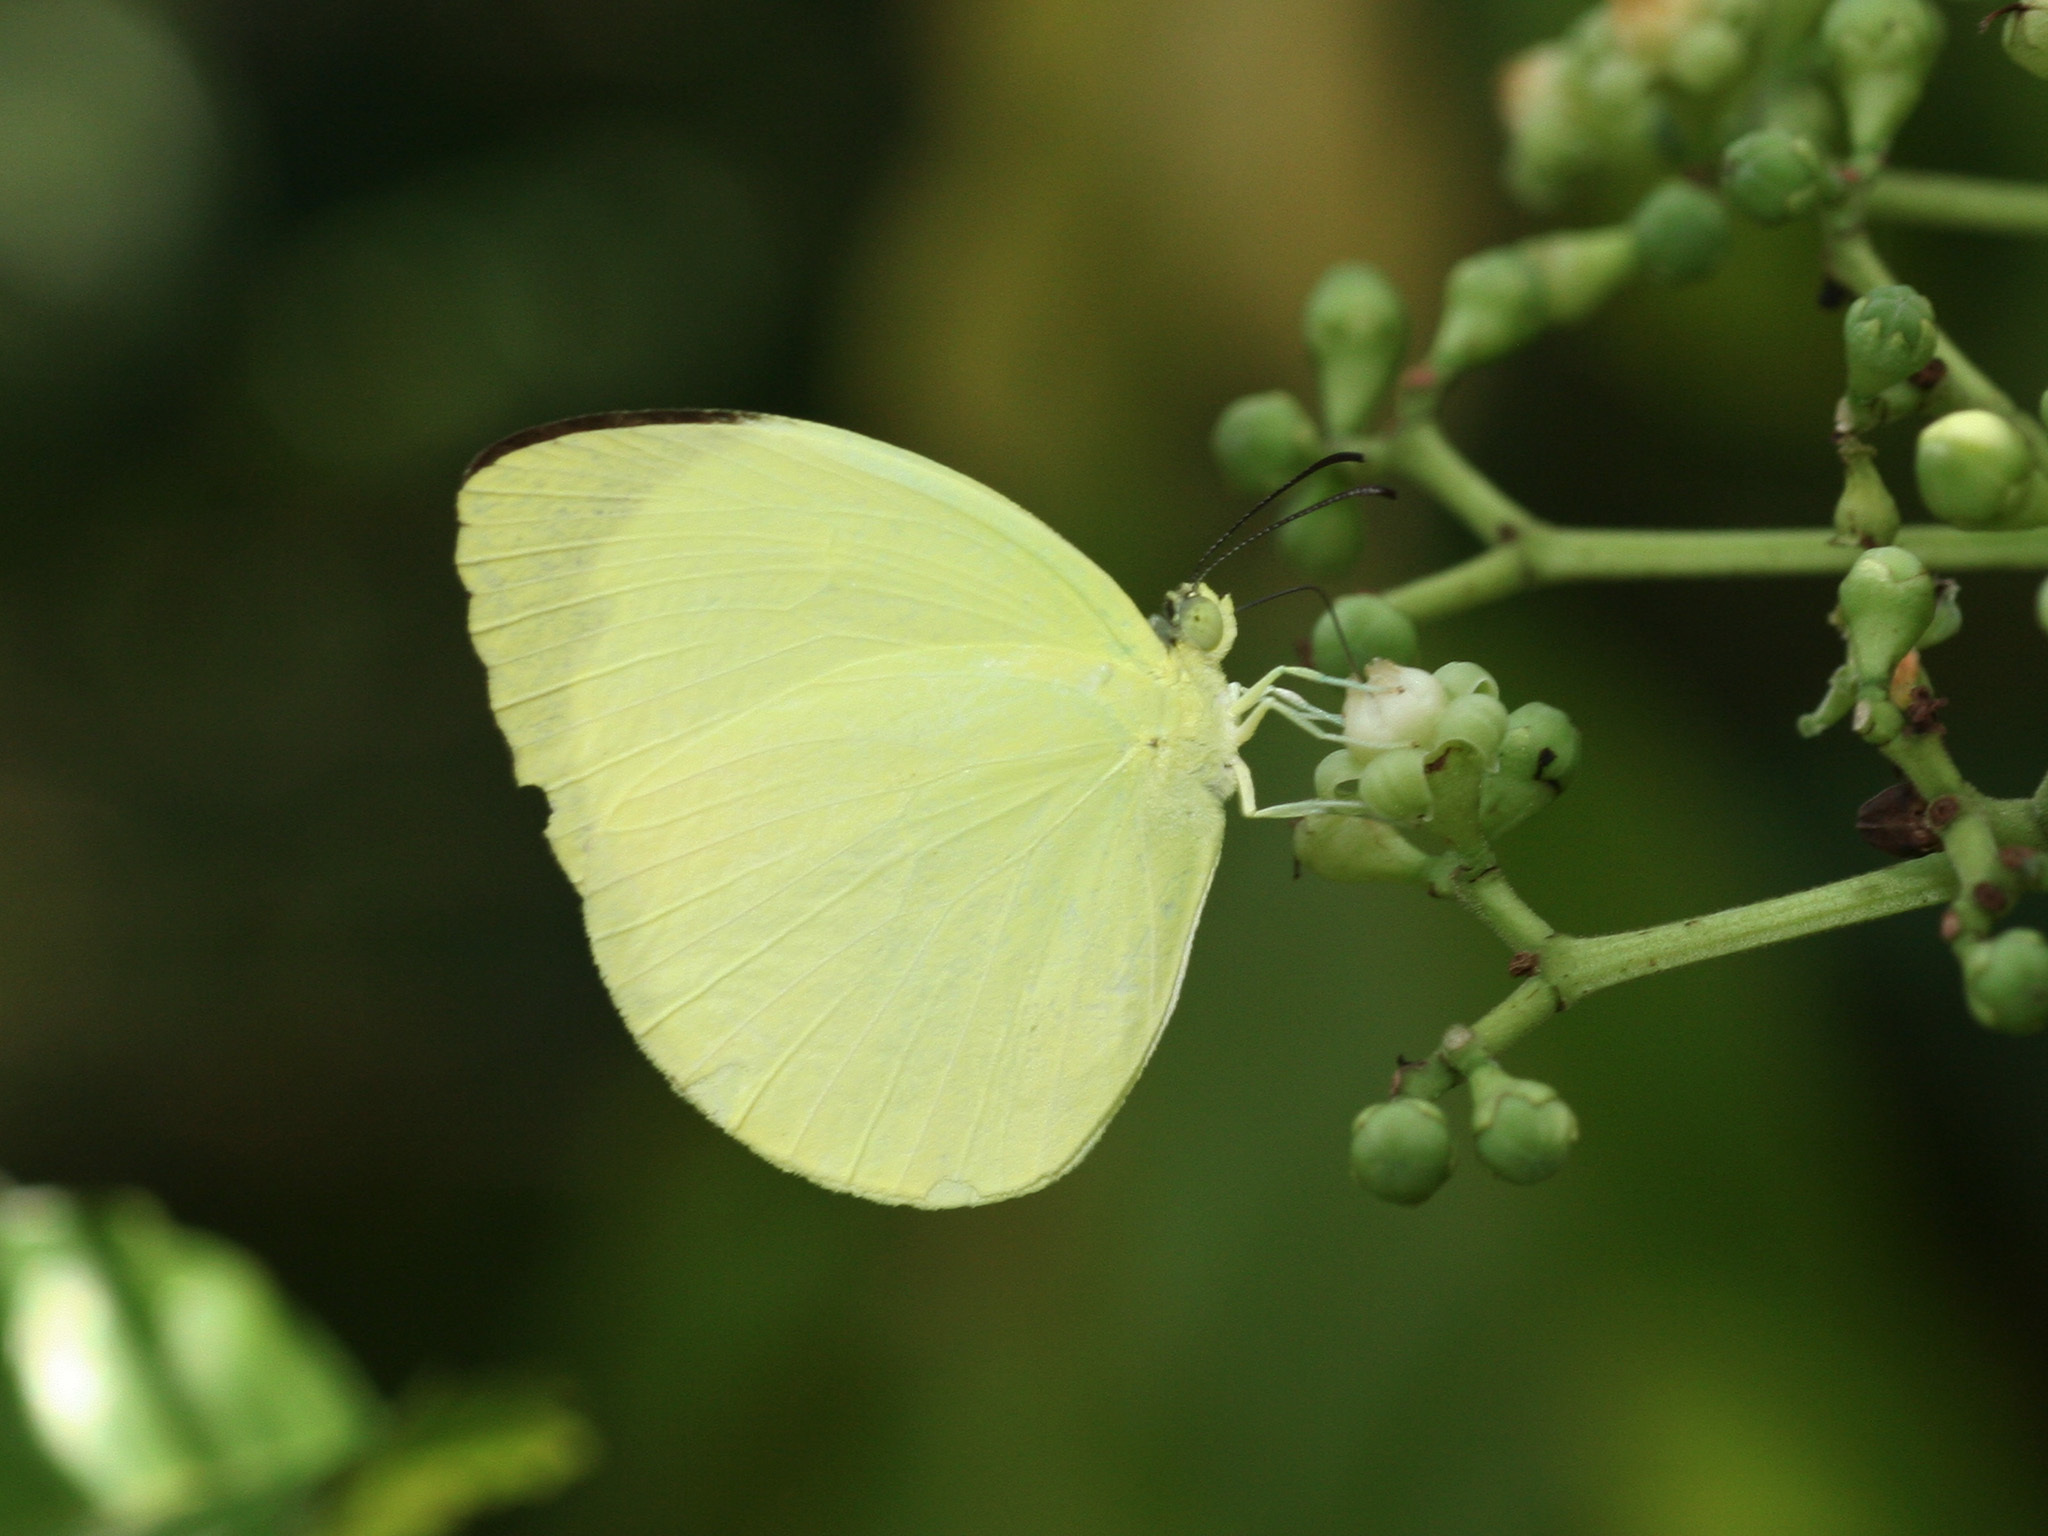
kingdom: Animalia
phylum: Arthropoda
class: Insecta
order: Lepidoptera
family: Pieridae
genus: Gandaca
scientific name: Gandaca harina
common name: Tree yellow
